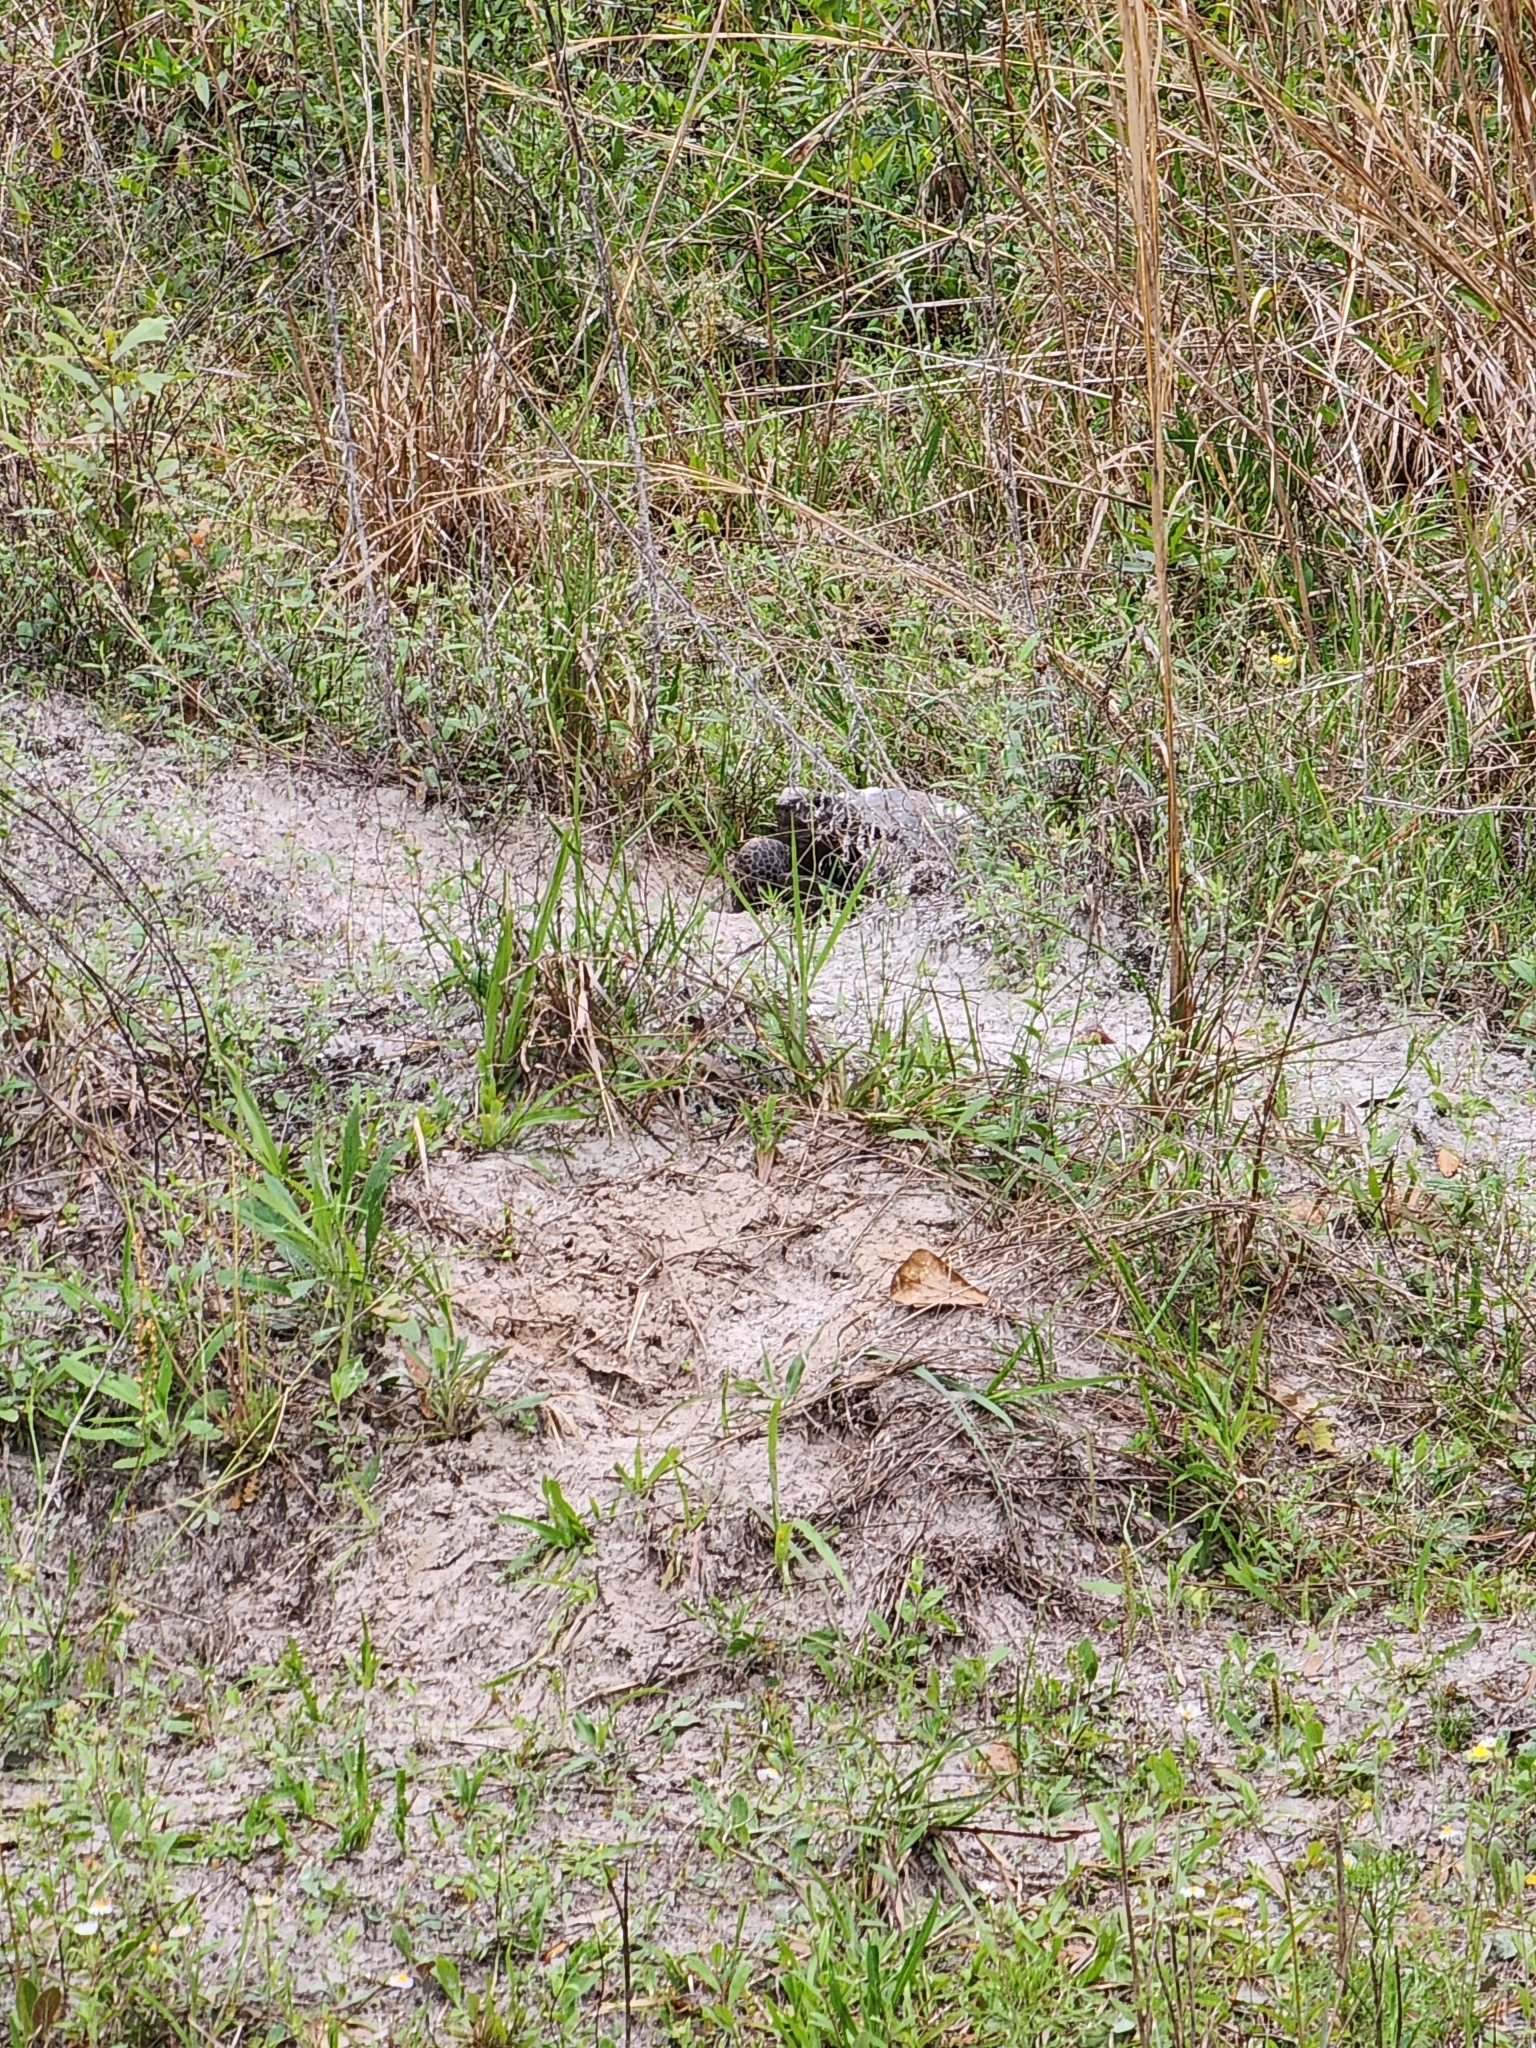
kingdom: Animalia
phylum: Chordata
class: Testudines
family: Testudinidae
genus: Gopherus
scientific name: Gopherus polyphemus
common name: Florida gopher tortoise
